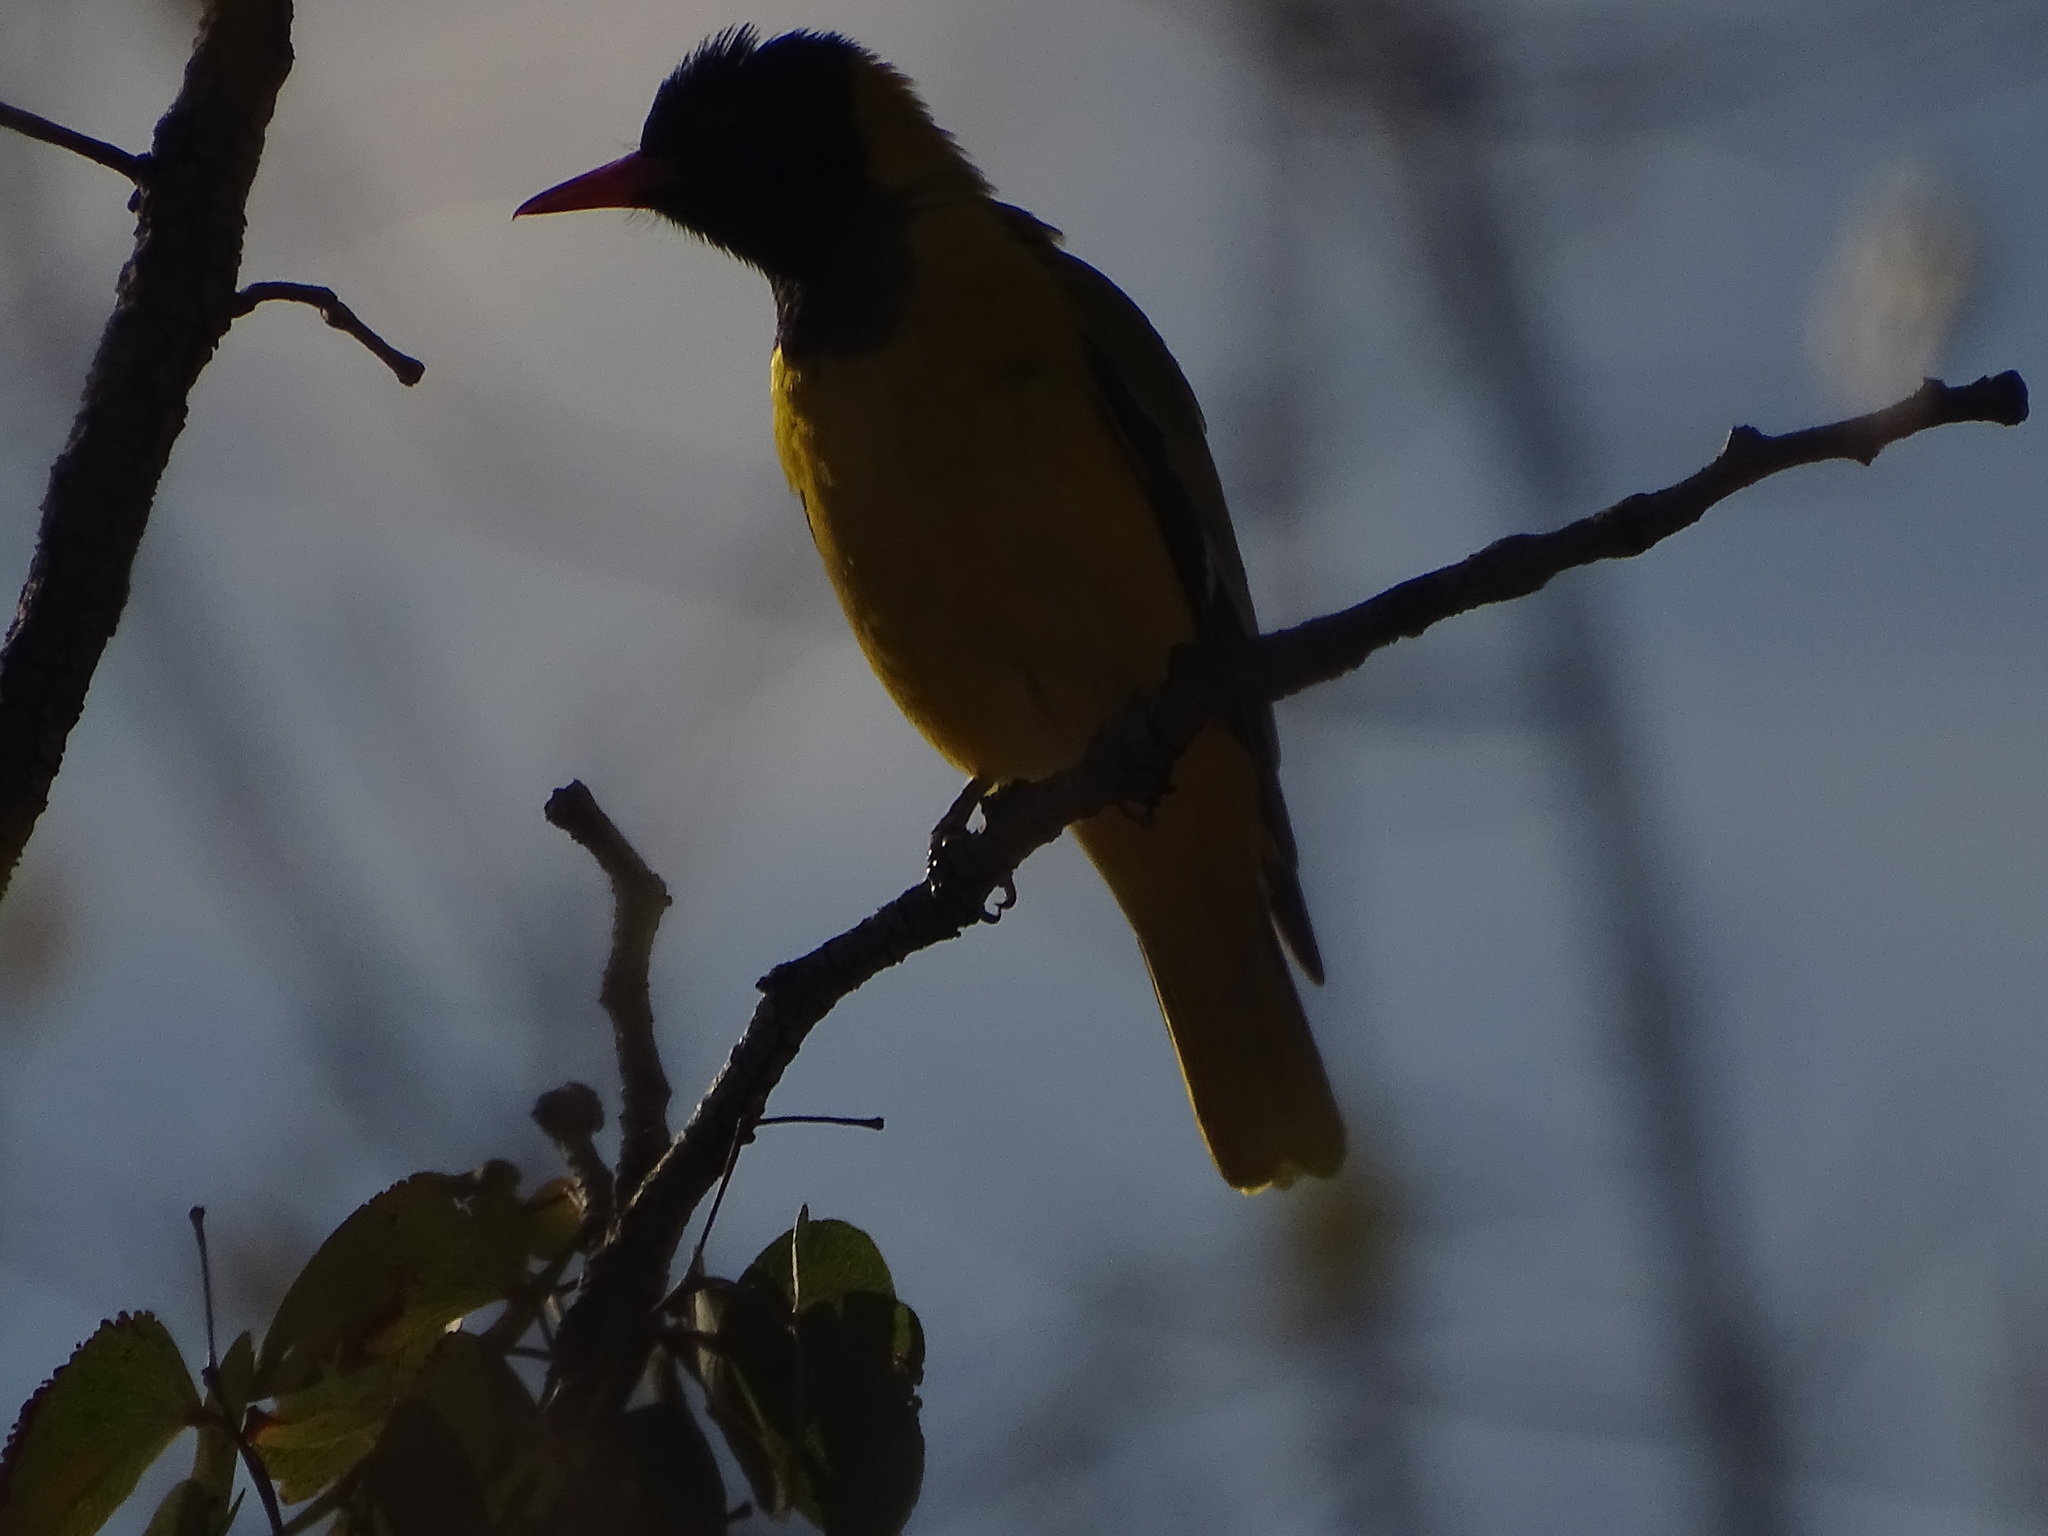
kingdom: Animalia
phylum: Chordata
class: Aves
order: Passeriformes
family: Oriolidae
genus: Oriolus
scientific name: Oriolus larvatus
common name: Black-headed oriole
